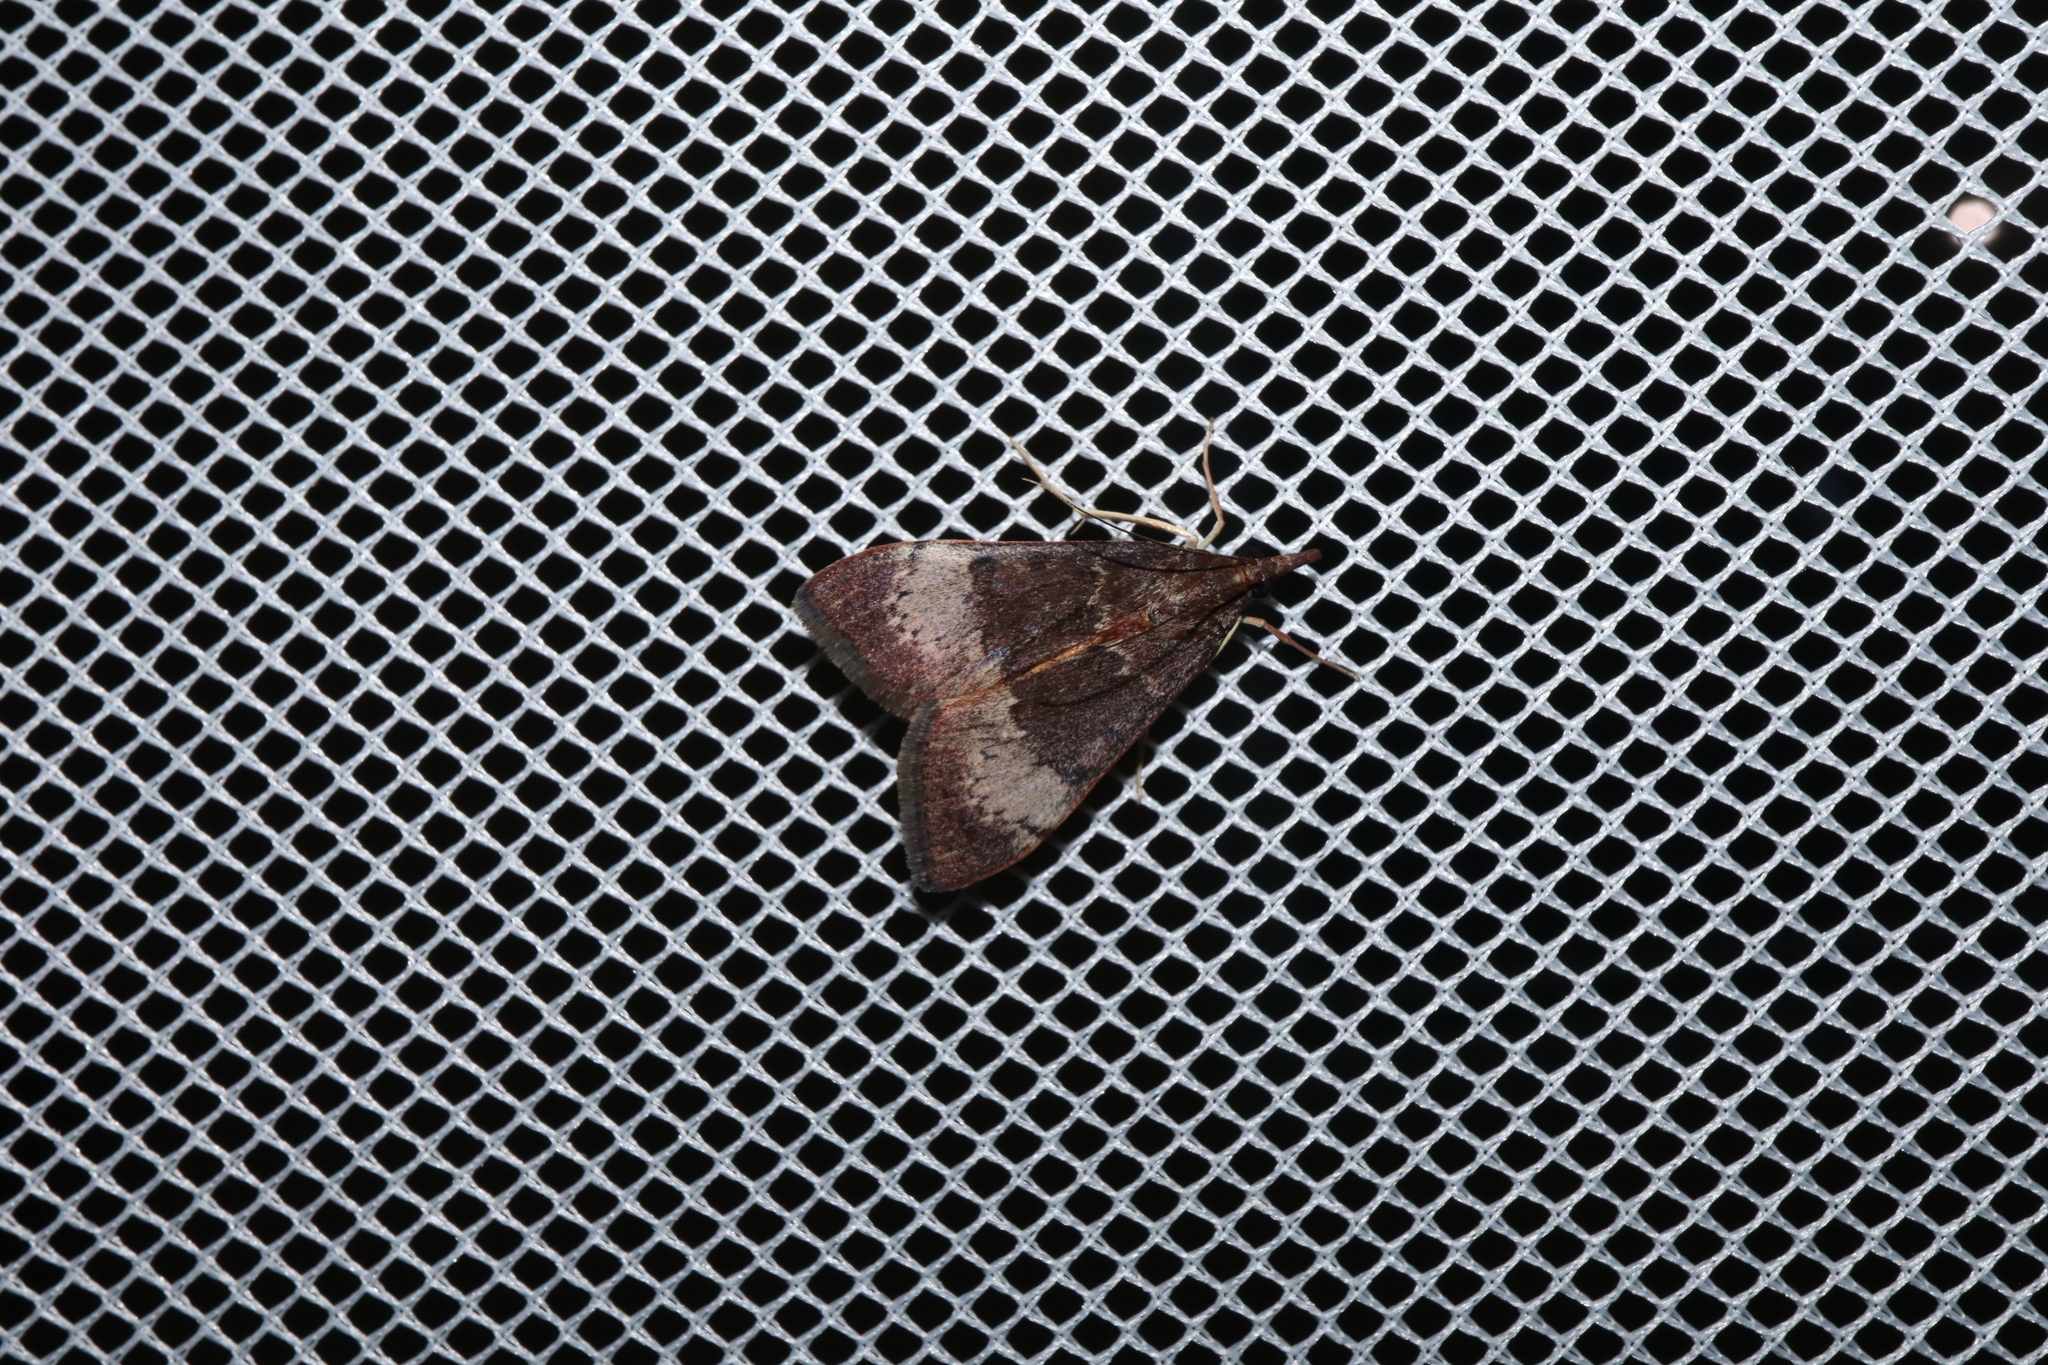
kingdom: Animalia
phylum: Arthropoda
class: Insecta
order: Lepidoptera
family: Crambidae
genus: Uresiphita
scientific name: Uresiphita ornithopteralis
